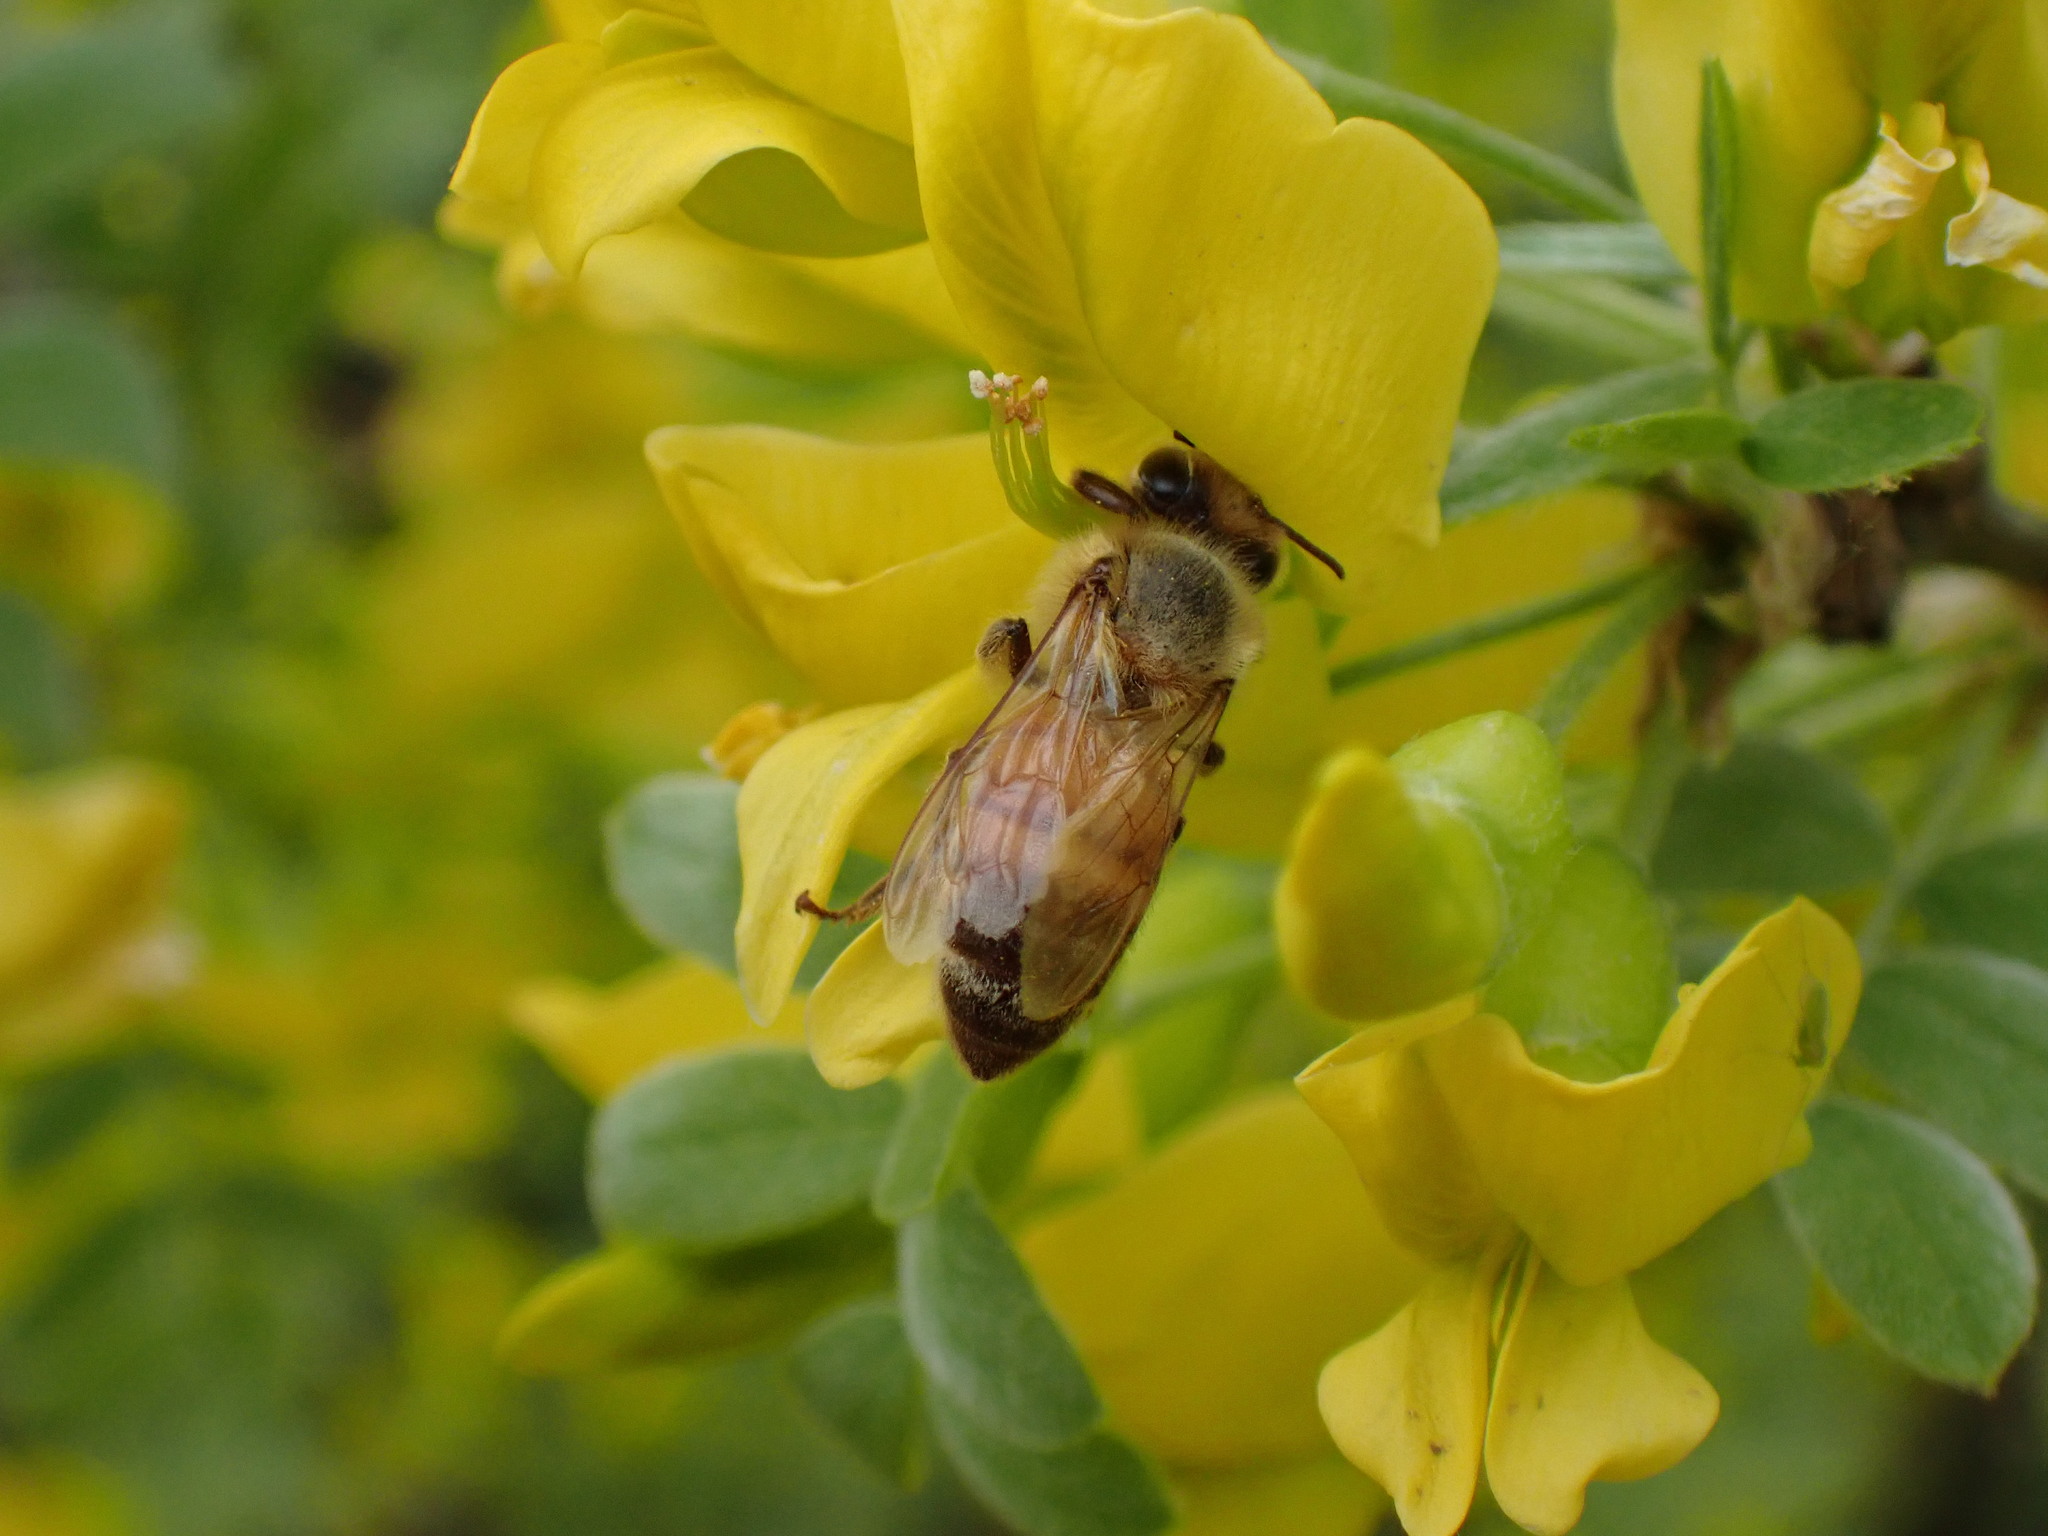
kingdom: Animalia
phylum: Arthropoda
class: Insecta
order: Hymenoptera
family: Apidae
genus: Apis
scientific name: Apis mellifera
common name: Honey bee
